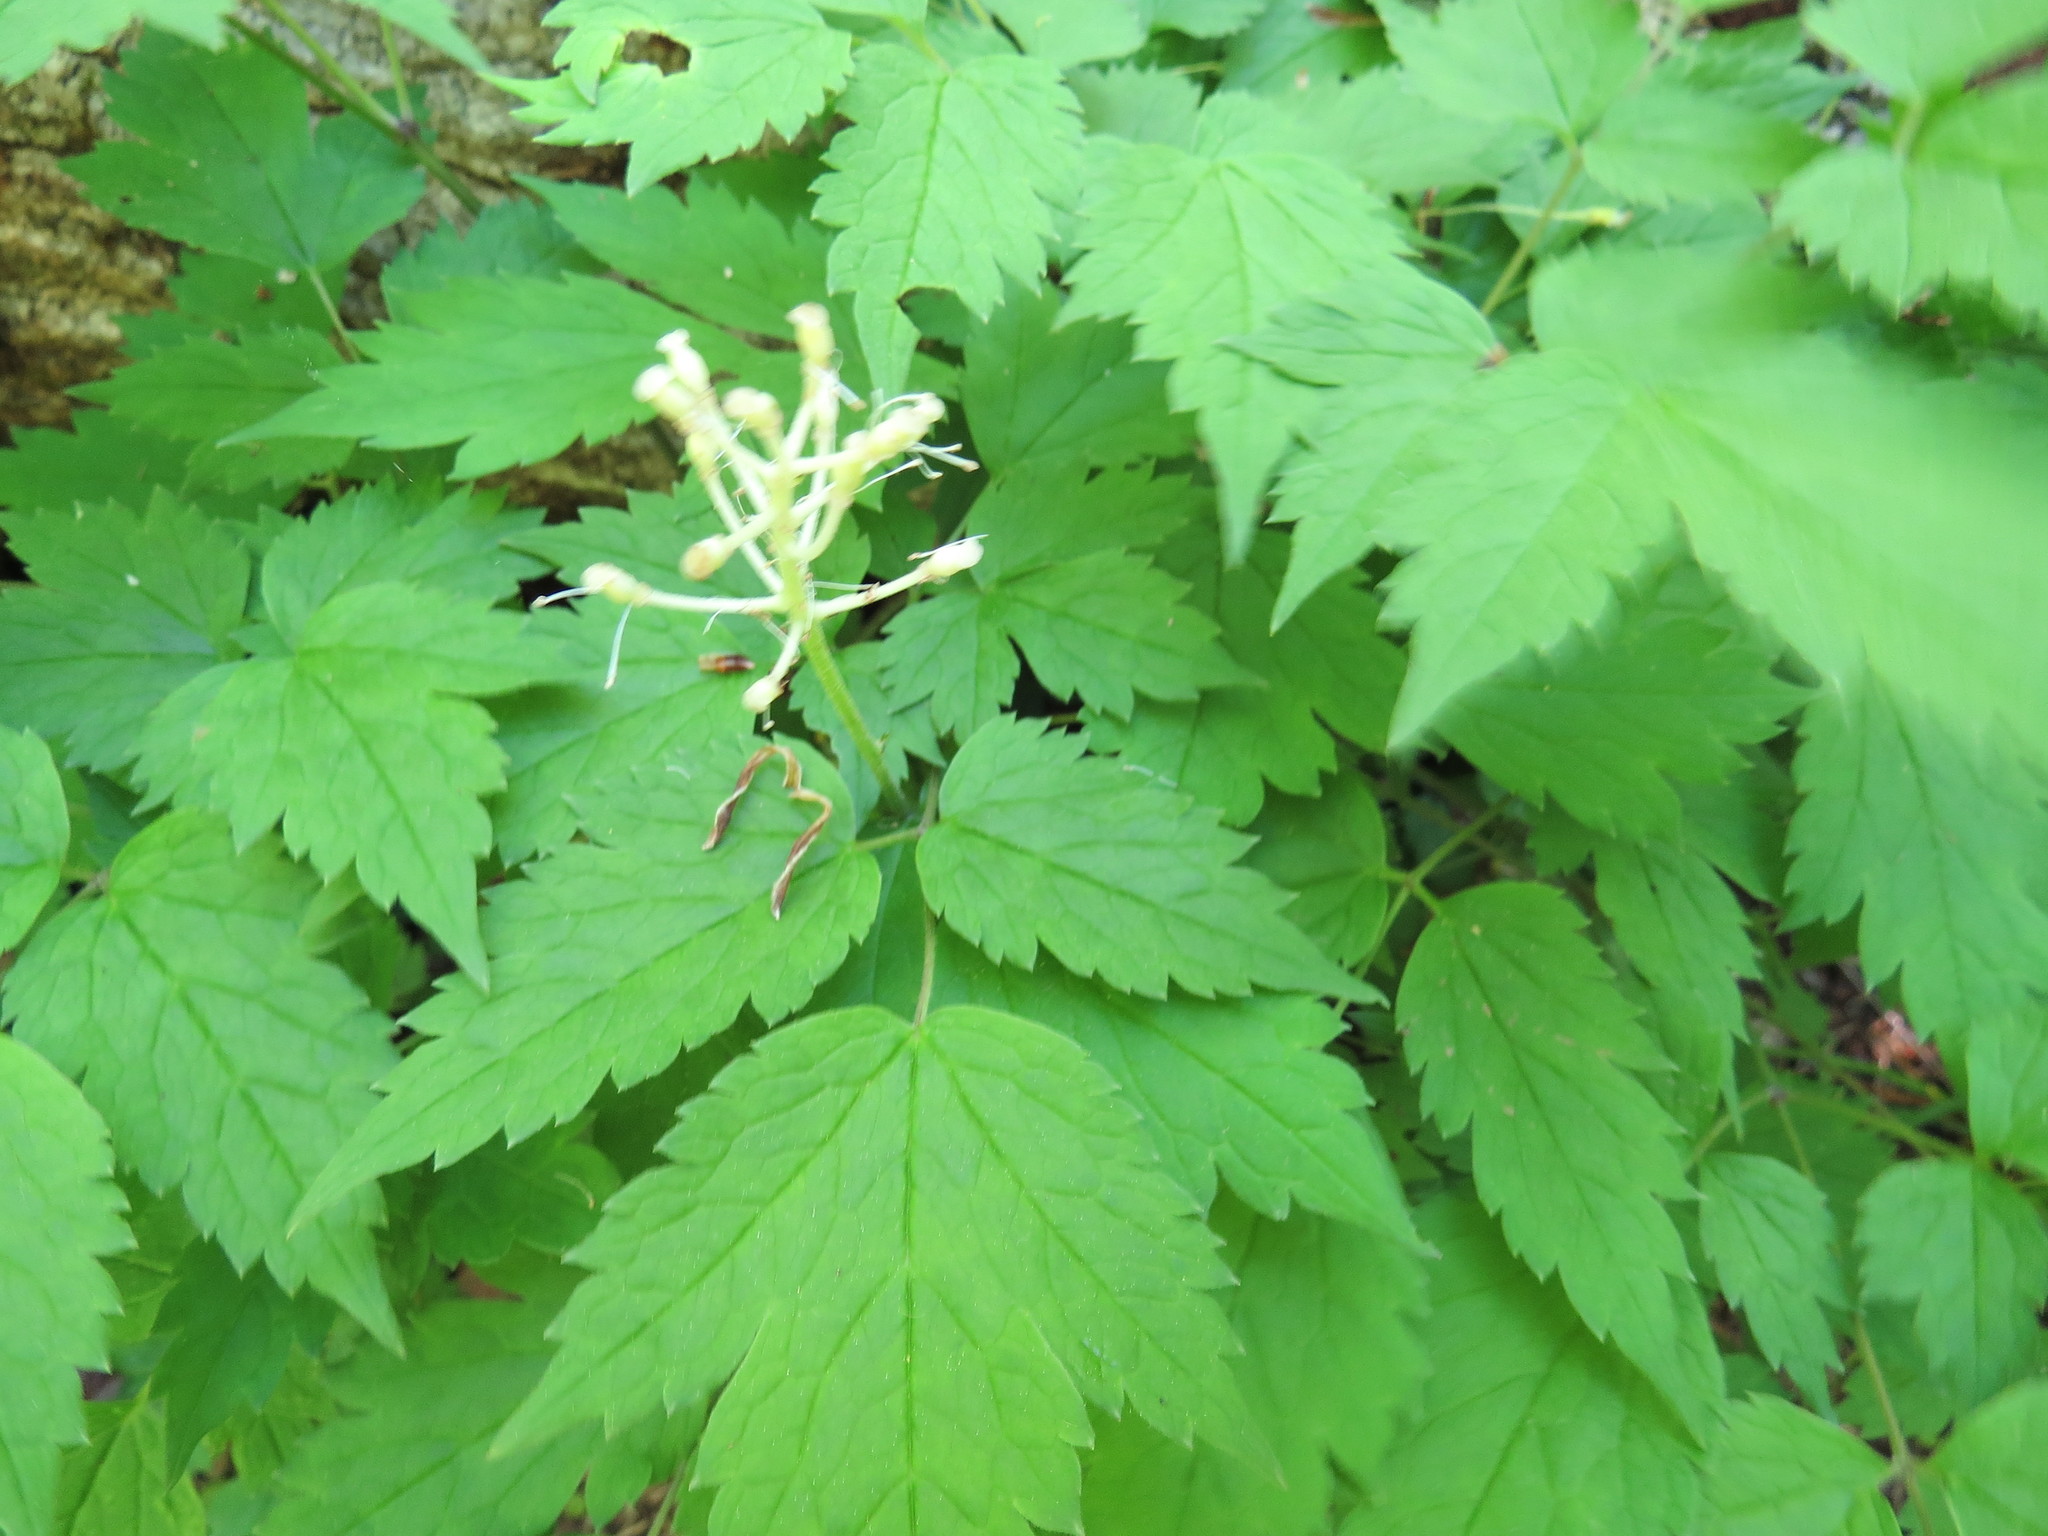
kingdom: Plantae
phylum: Tracheophyta
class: Magnoliopsida
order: Ranunculales
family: Ranunculaceae
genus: Actaea
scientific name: Actaea rubra
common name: Red baneberry
